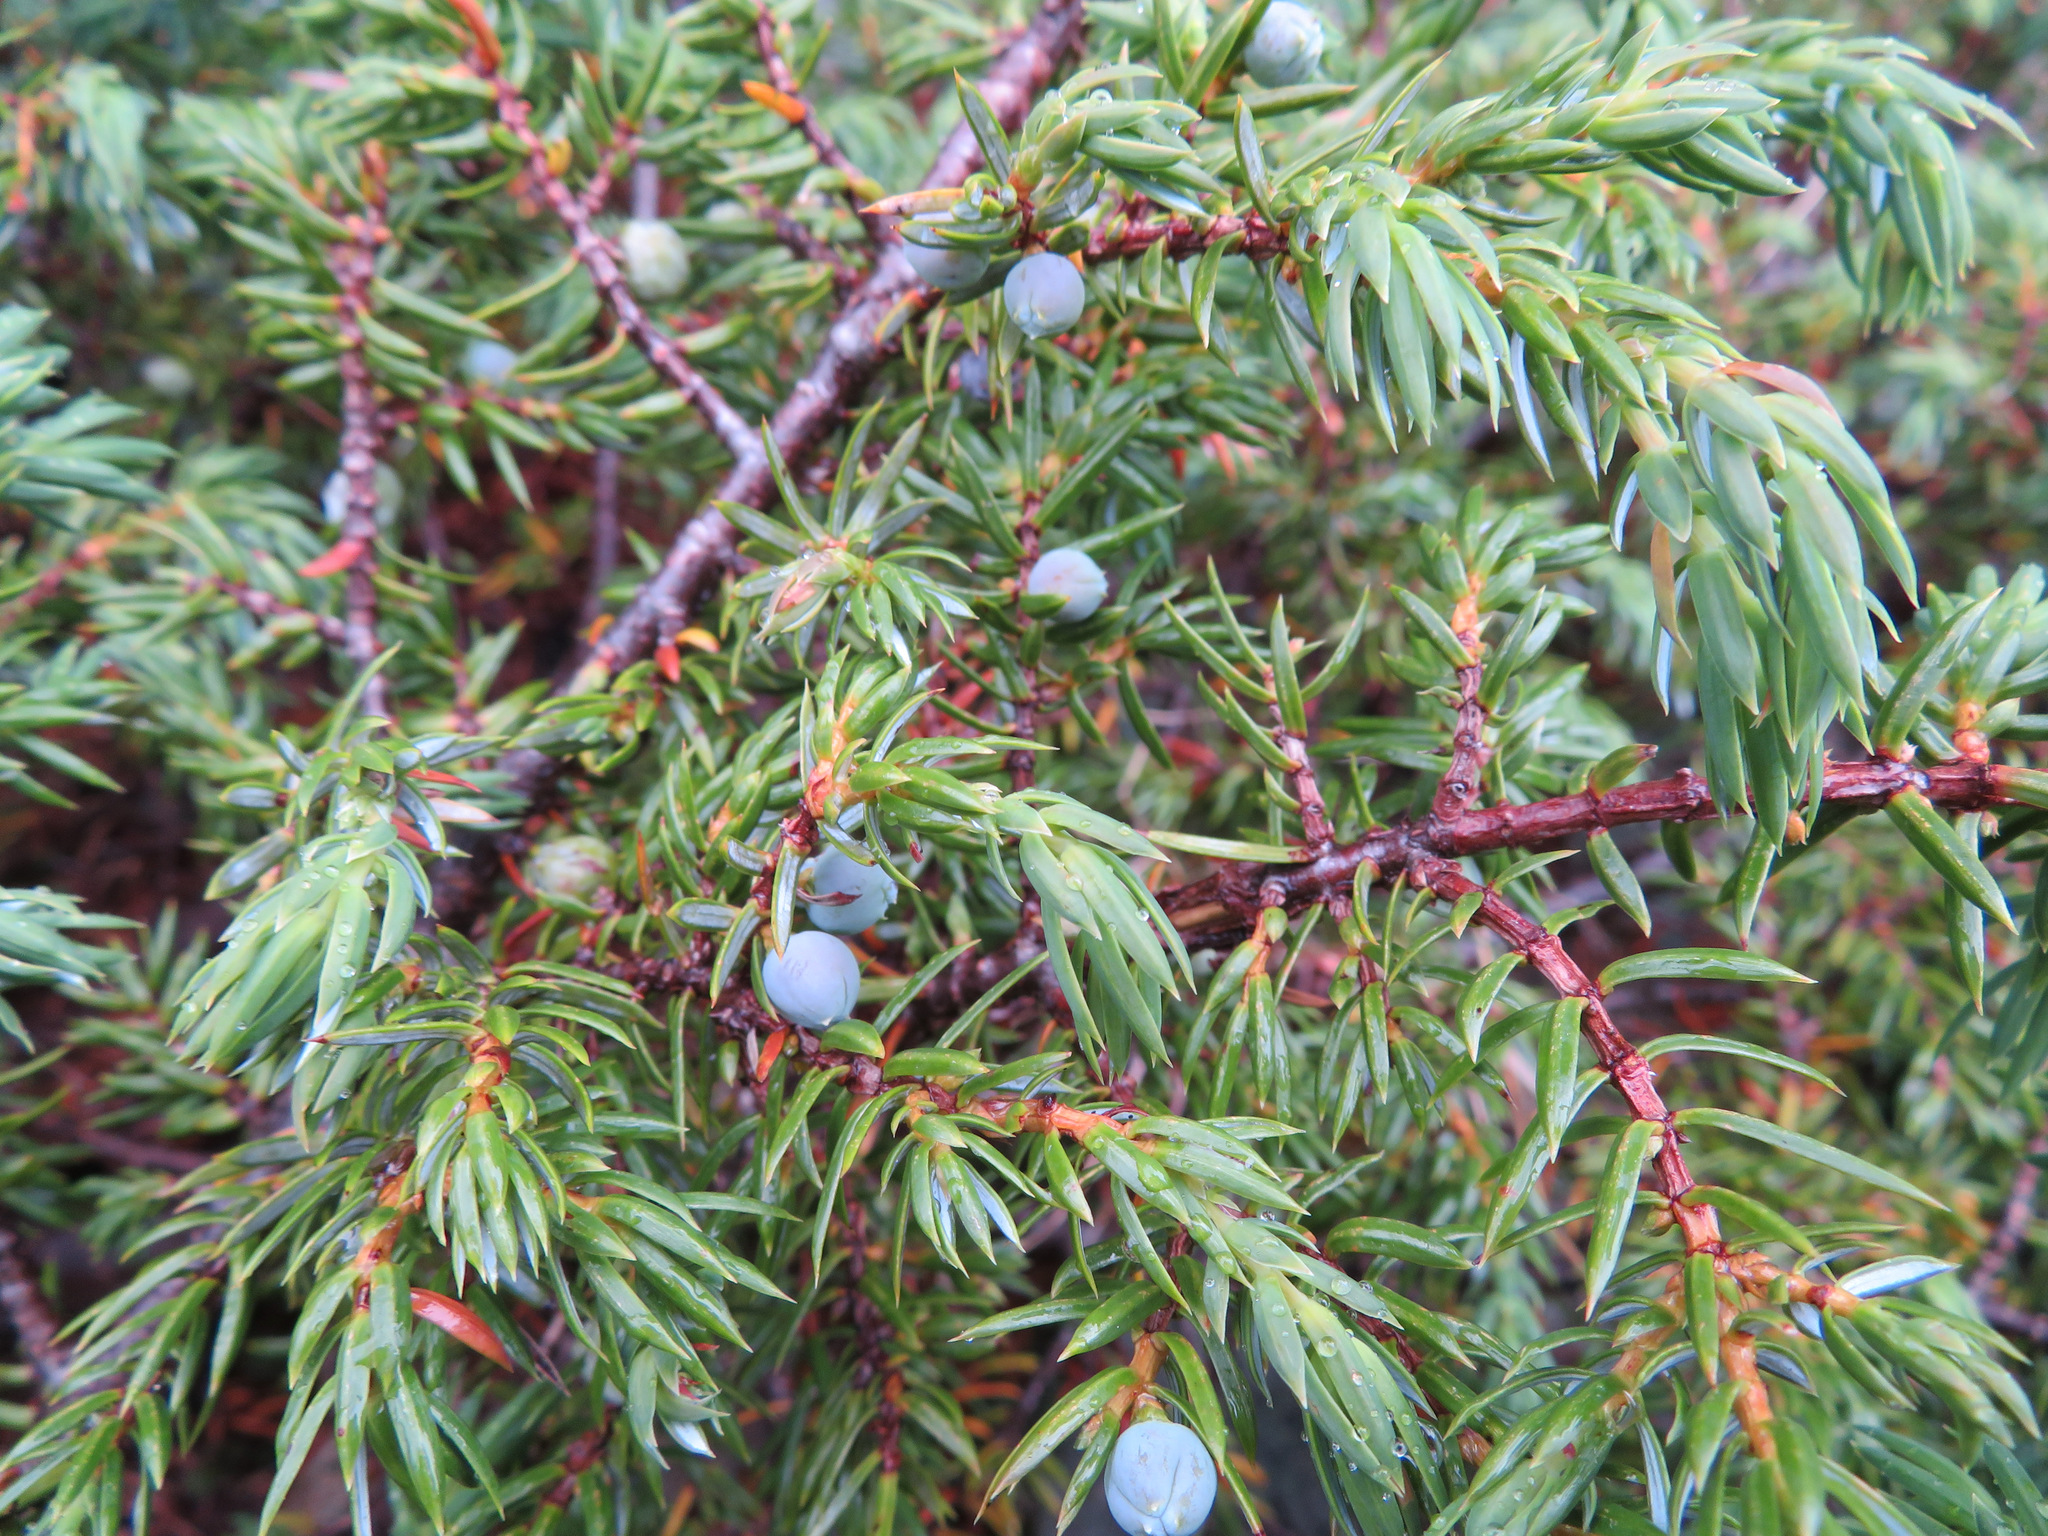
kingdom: Plantae
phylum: Tracheophyta
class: Pinopsida
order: Pinales
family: Cupressaceae
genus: Juniperus
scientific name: Juniperus communis
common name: Common juniper
